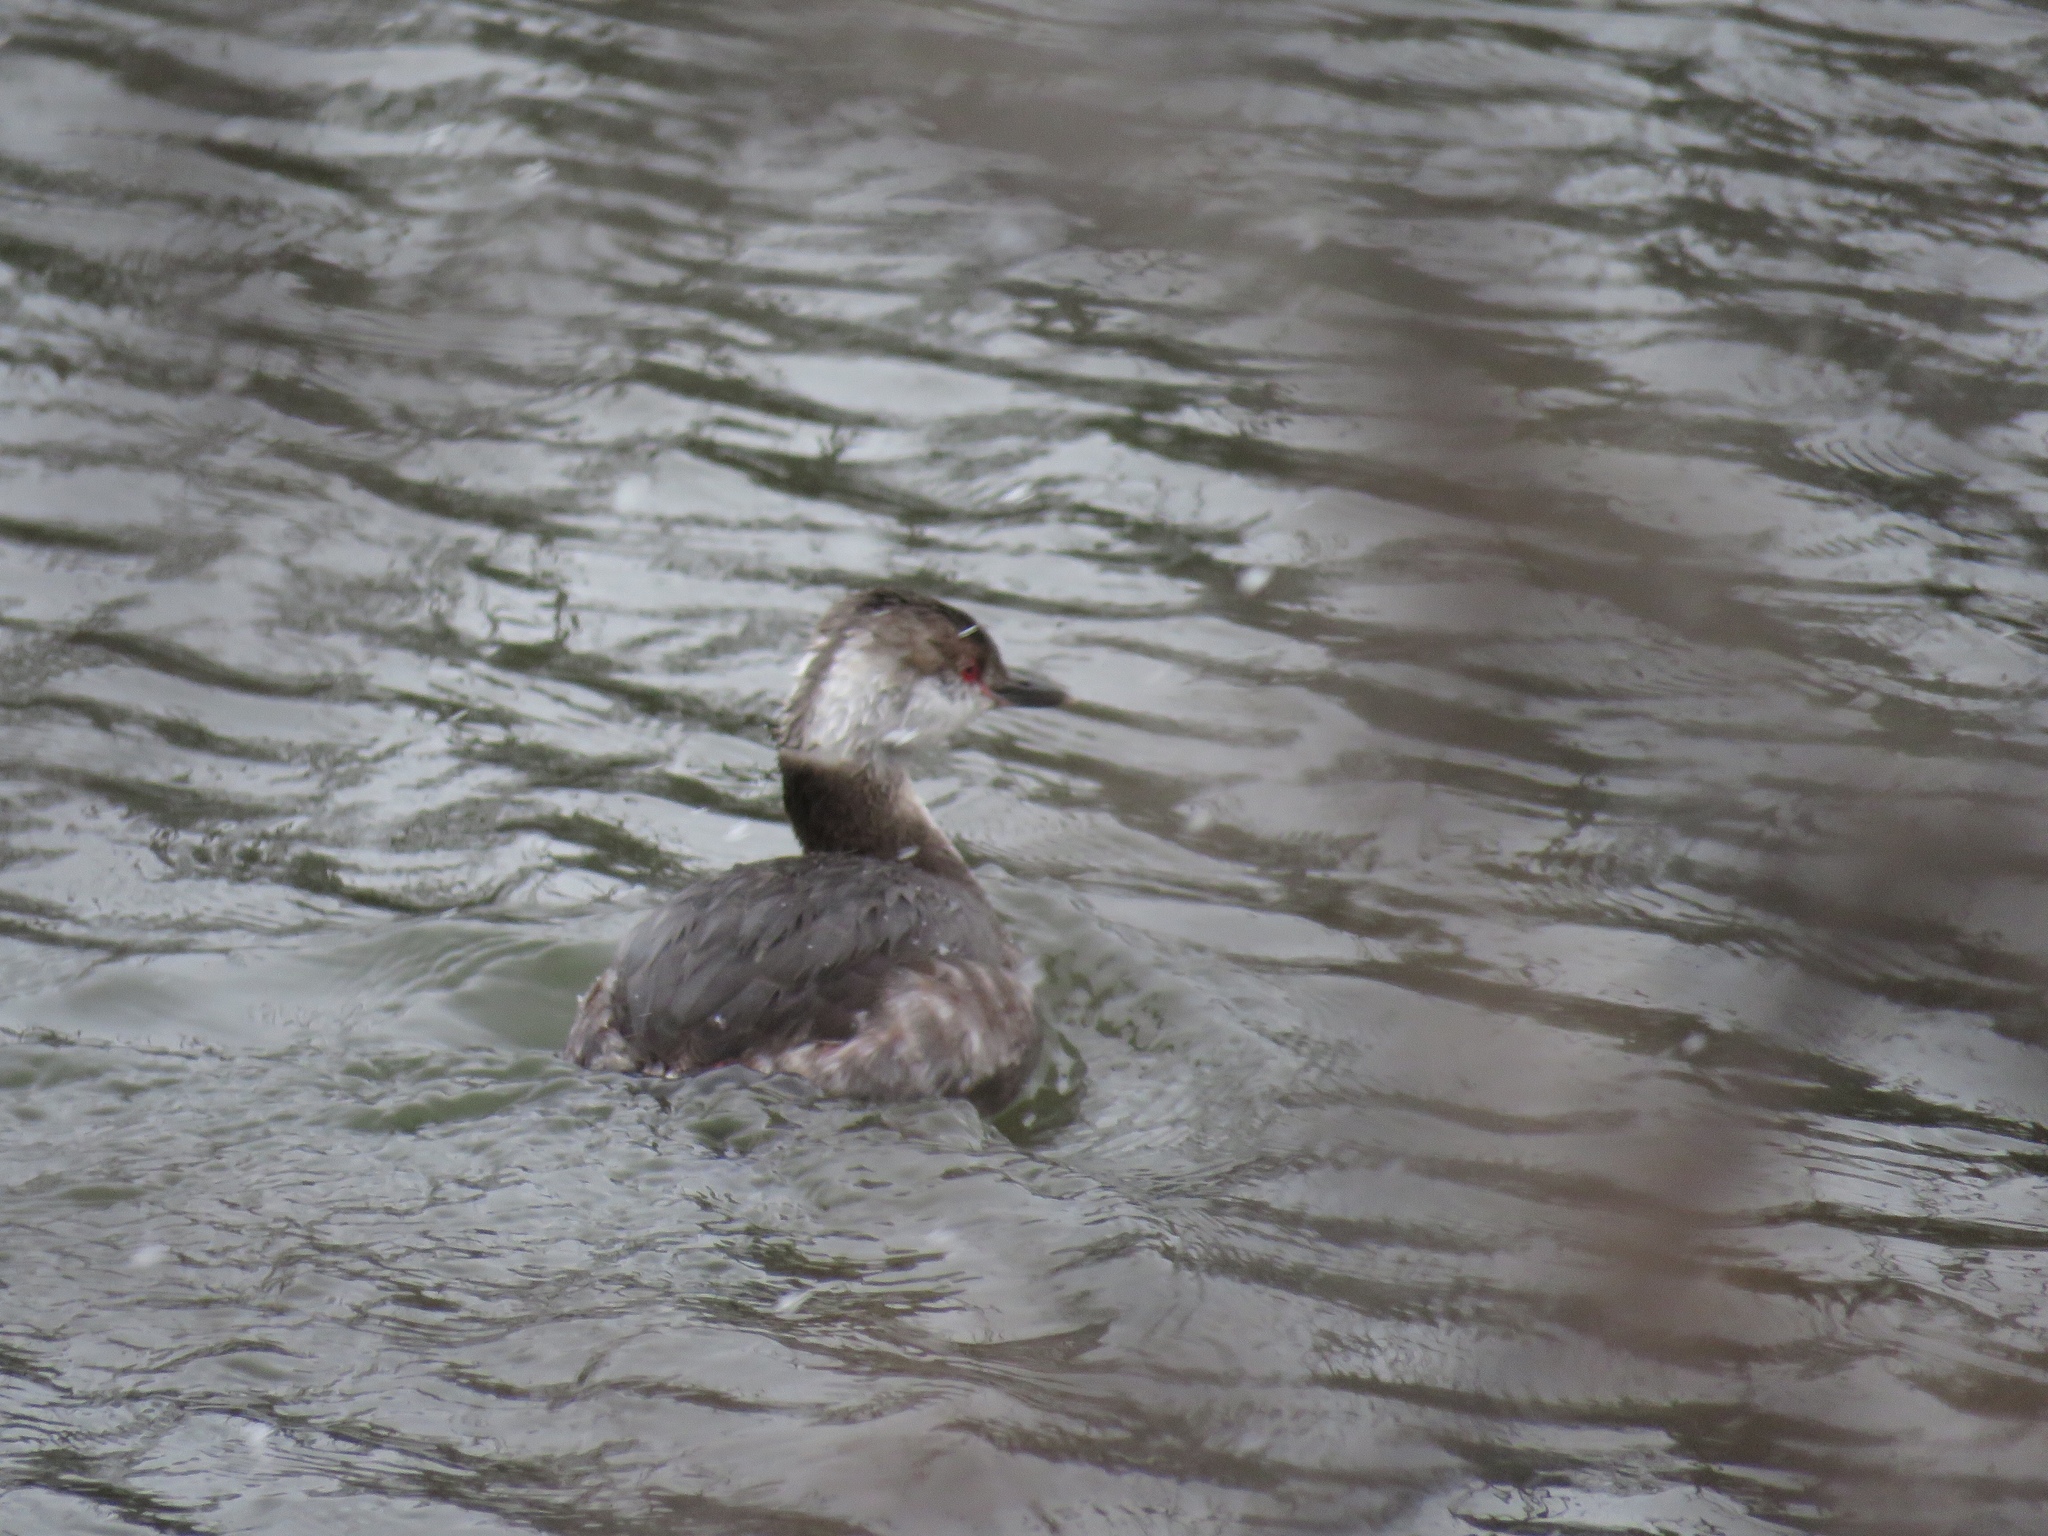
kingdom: Animalia
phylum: Chordata
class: Aves
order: Podicipediformes
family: Podicipedidae
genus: Podiceps
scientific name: Podiceps auritus
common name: Horned grebe
